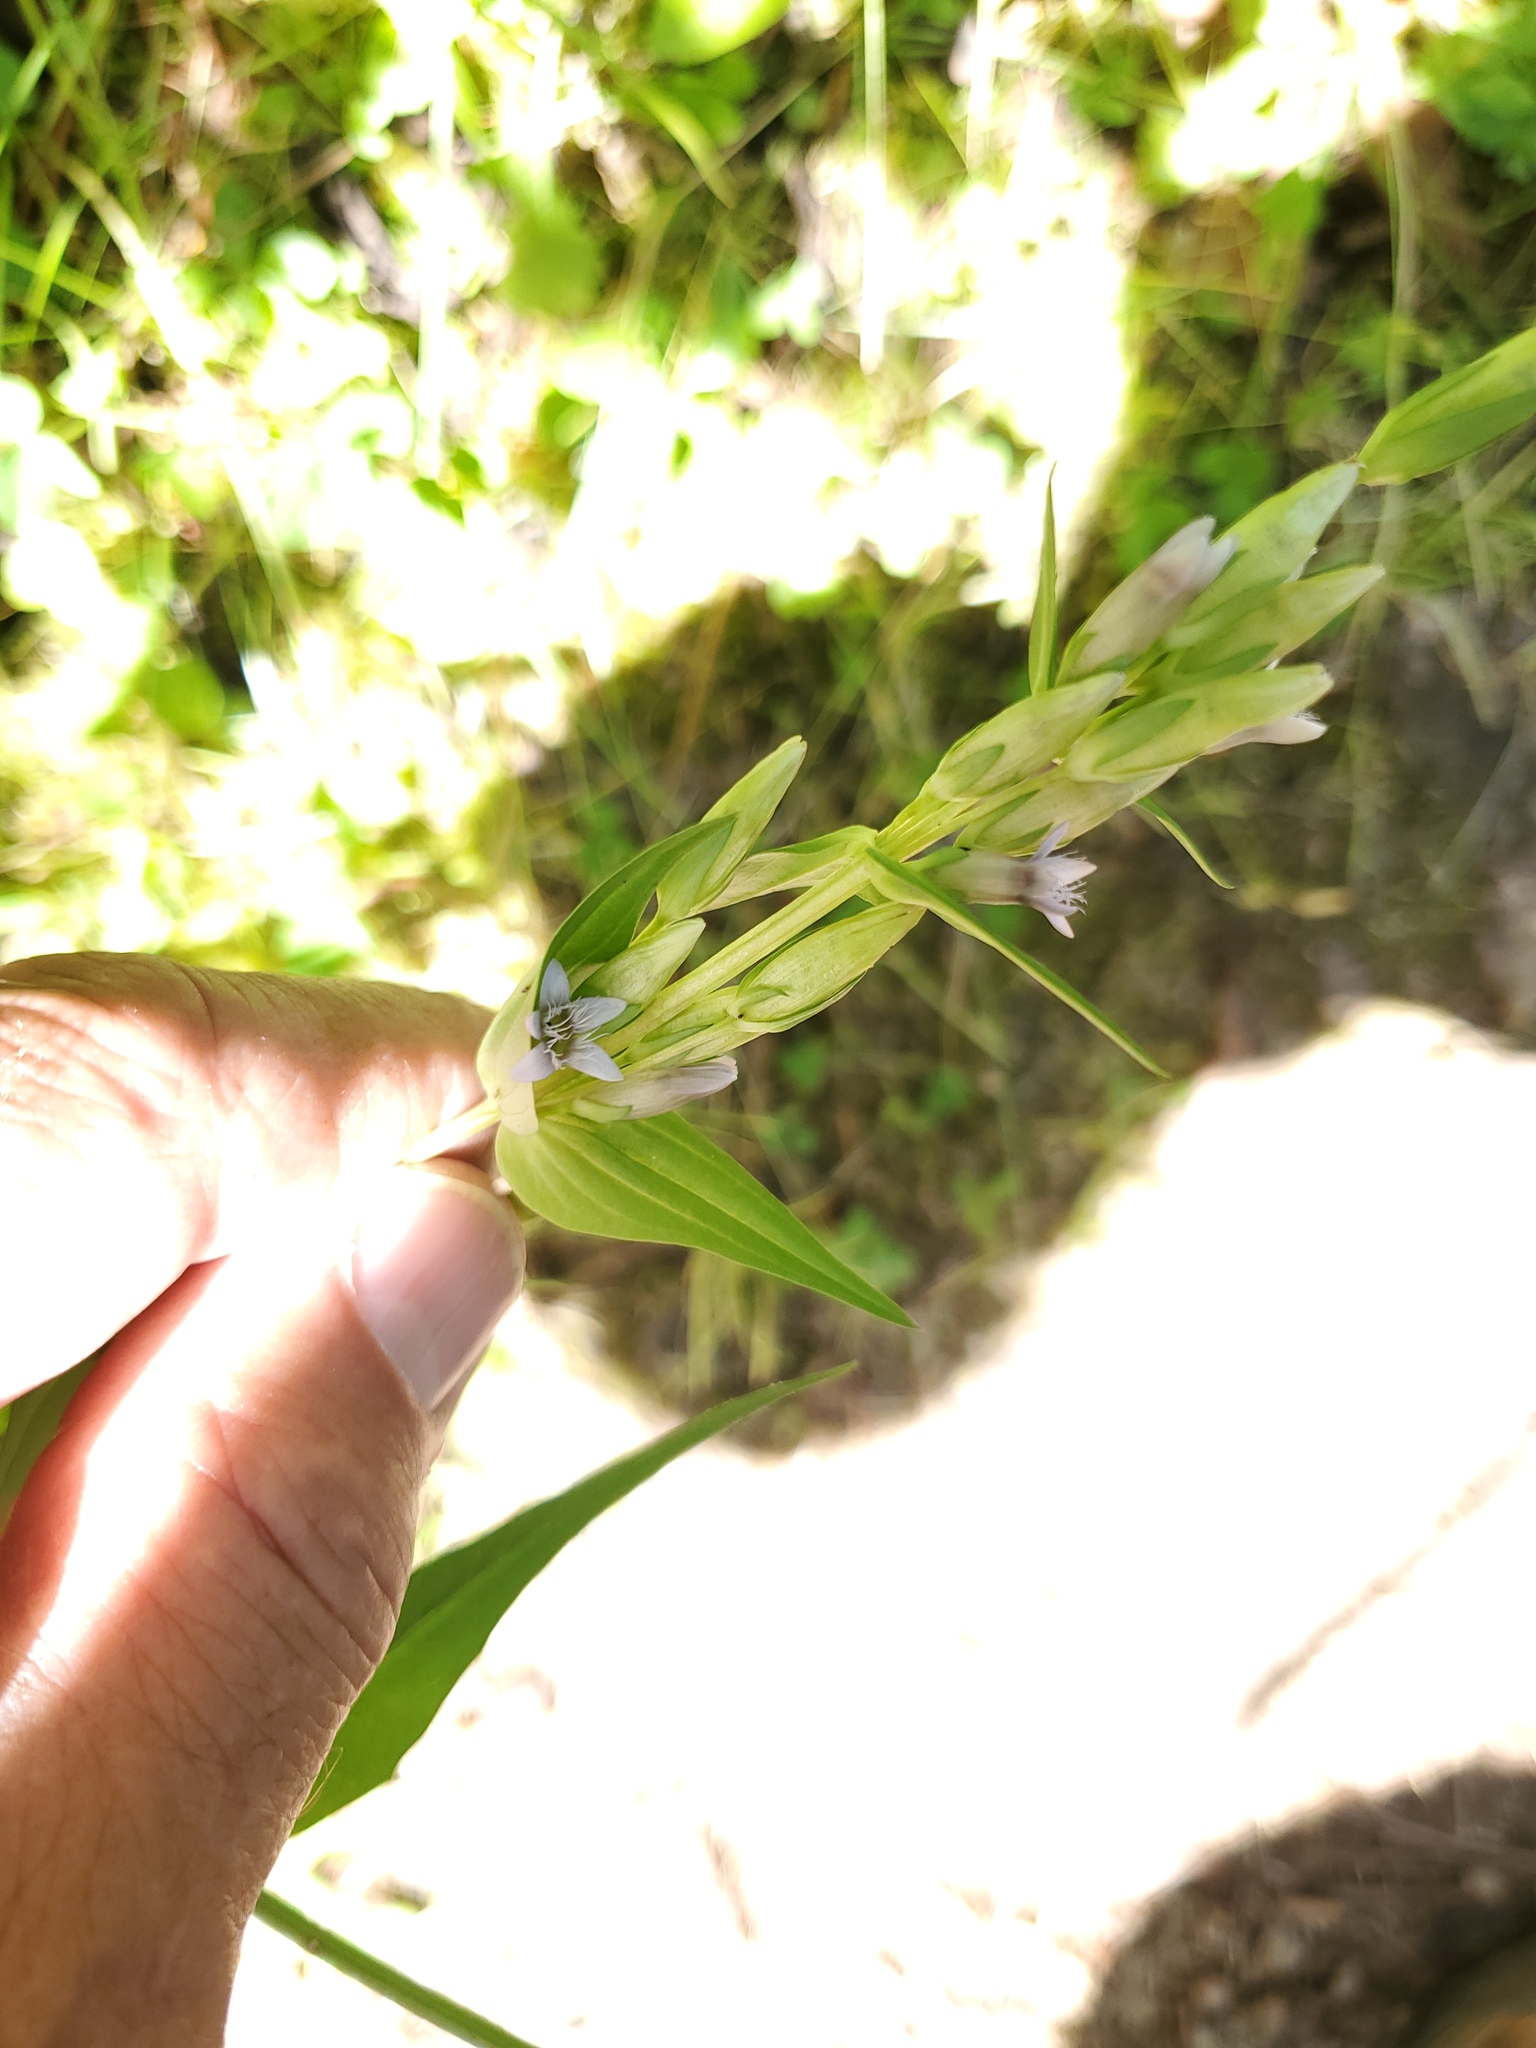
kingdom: Plantae
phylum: Tracheophyta
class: Magnoliopsida
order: Gentianales
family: Gentianaceae
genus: Gentianella
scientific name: Gentianella amarella
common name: Autumn gentian
